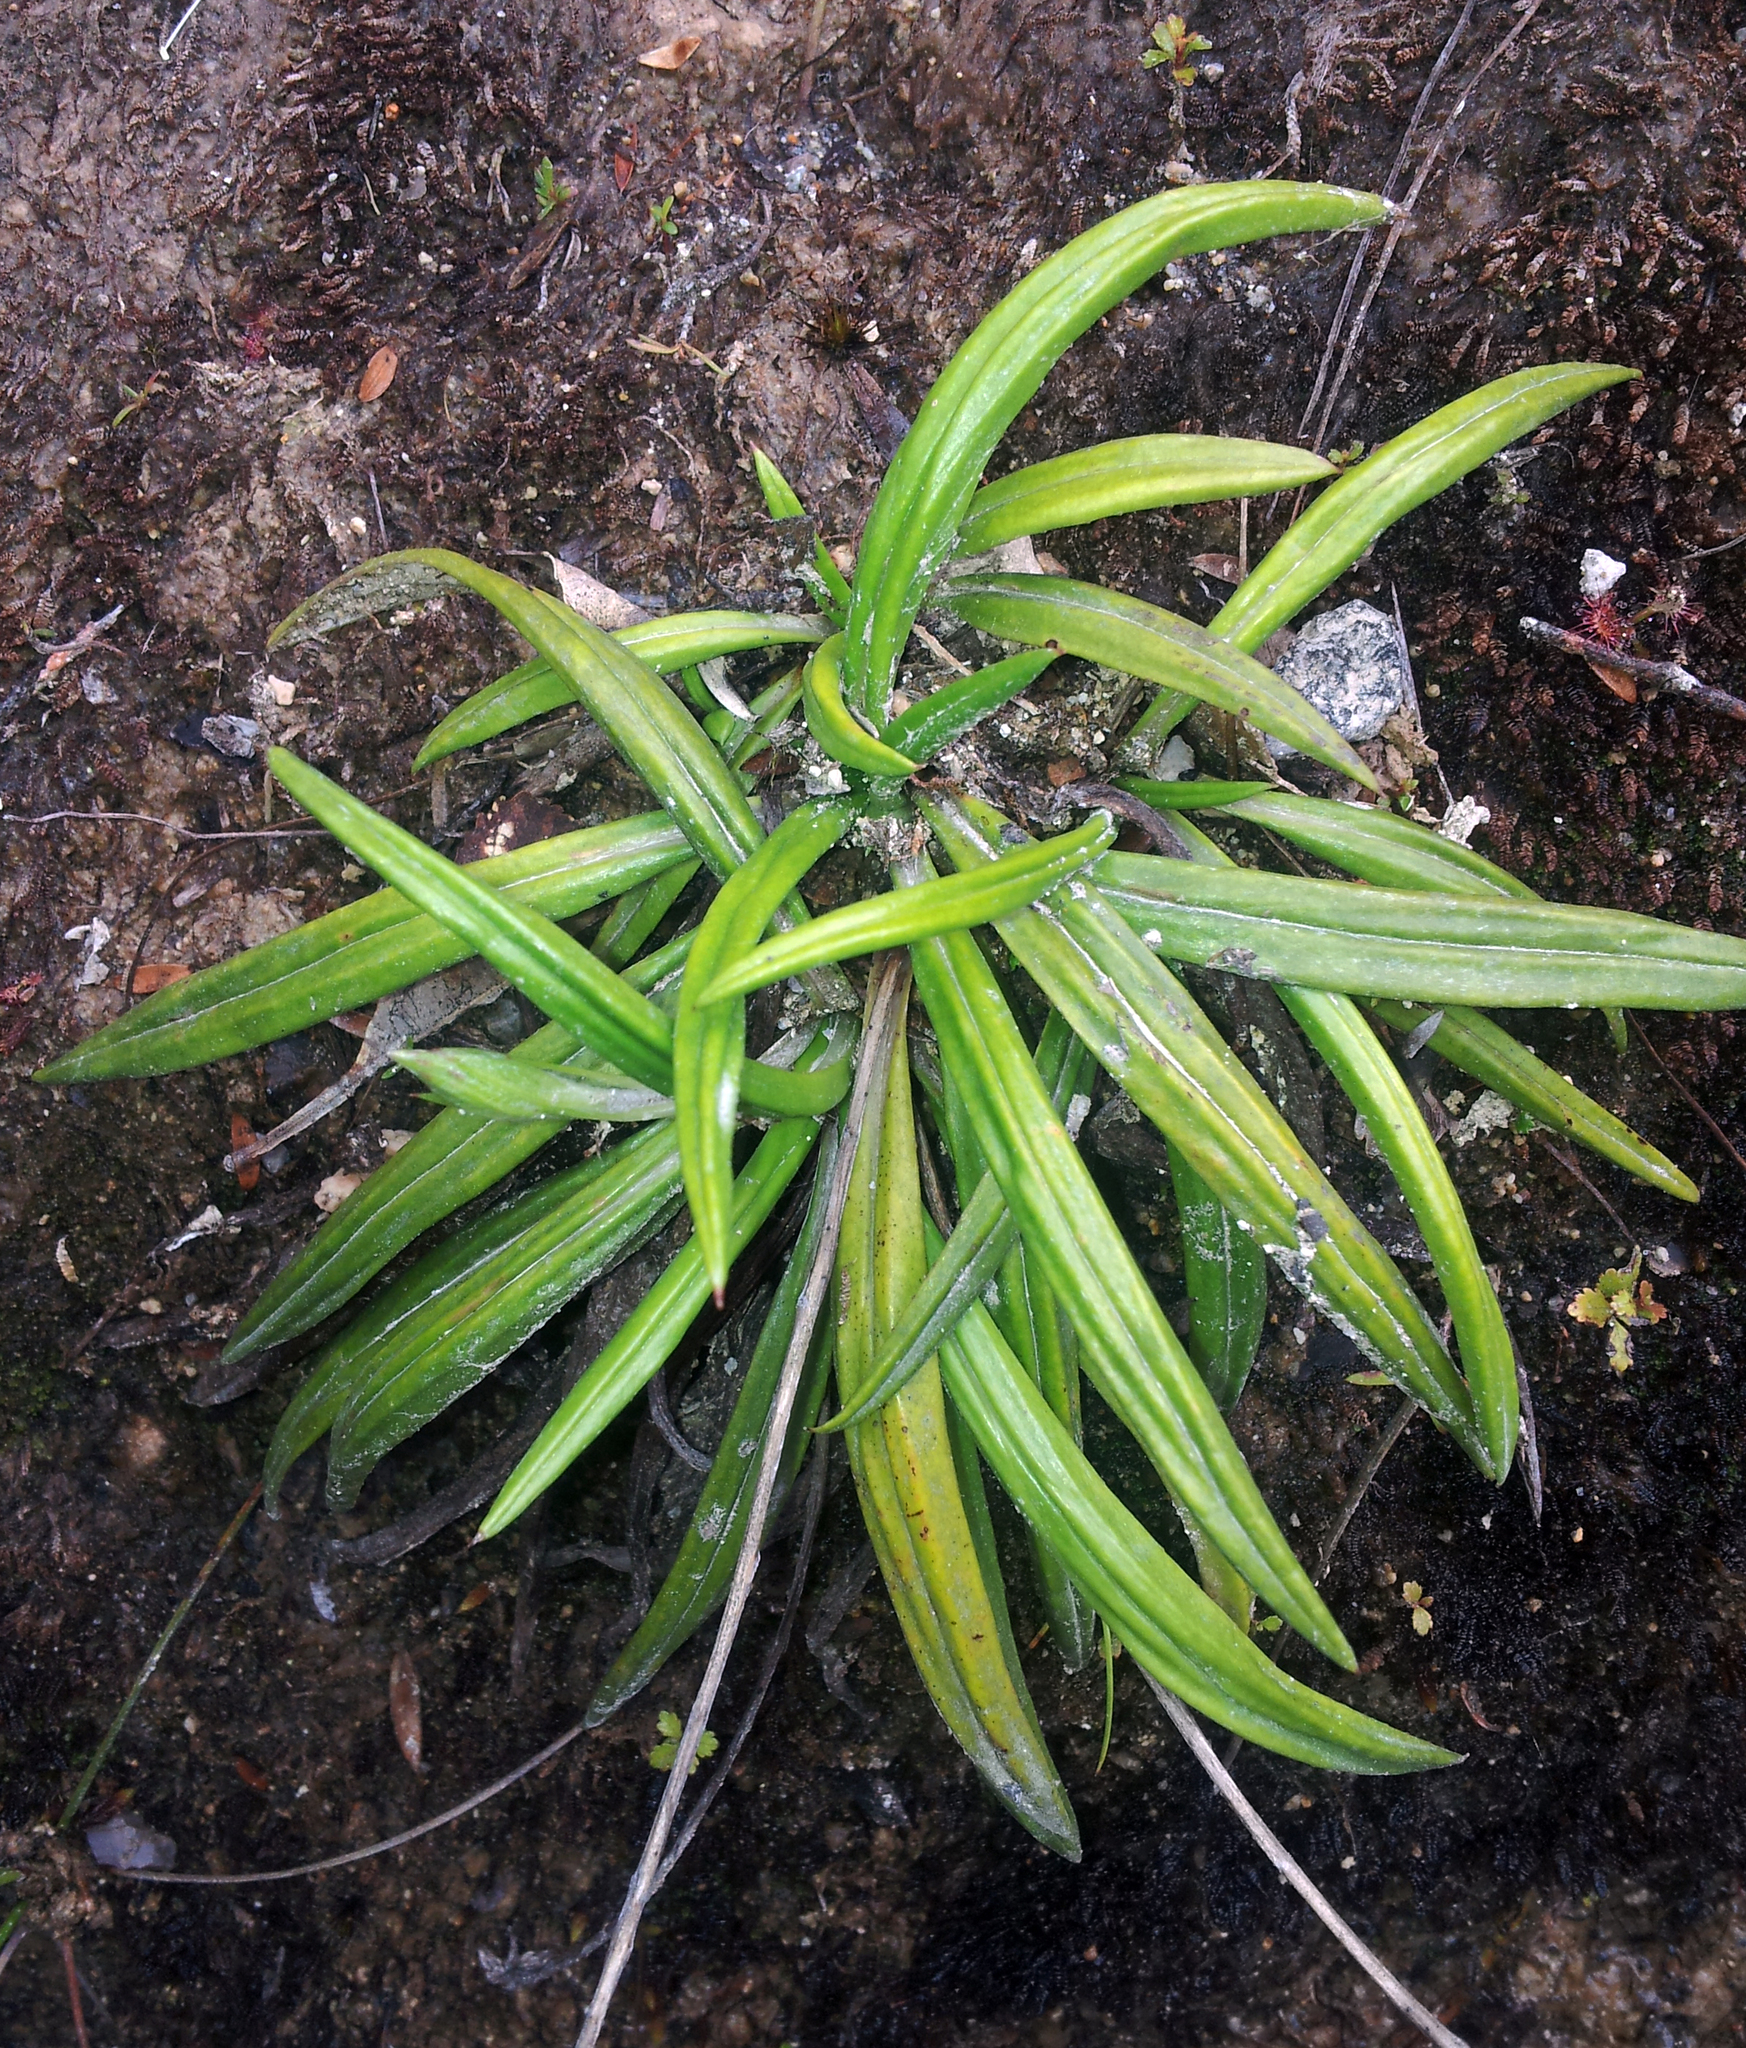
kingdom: Plantae
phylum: Tracheophyta
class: Magnoliopsida
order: Asterales
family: Asteraceae
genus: Celmisia
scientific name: Celmisia adamsii
